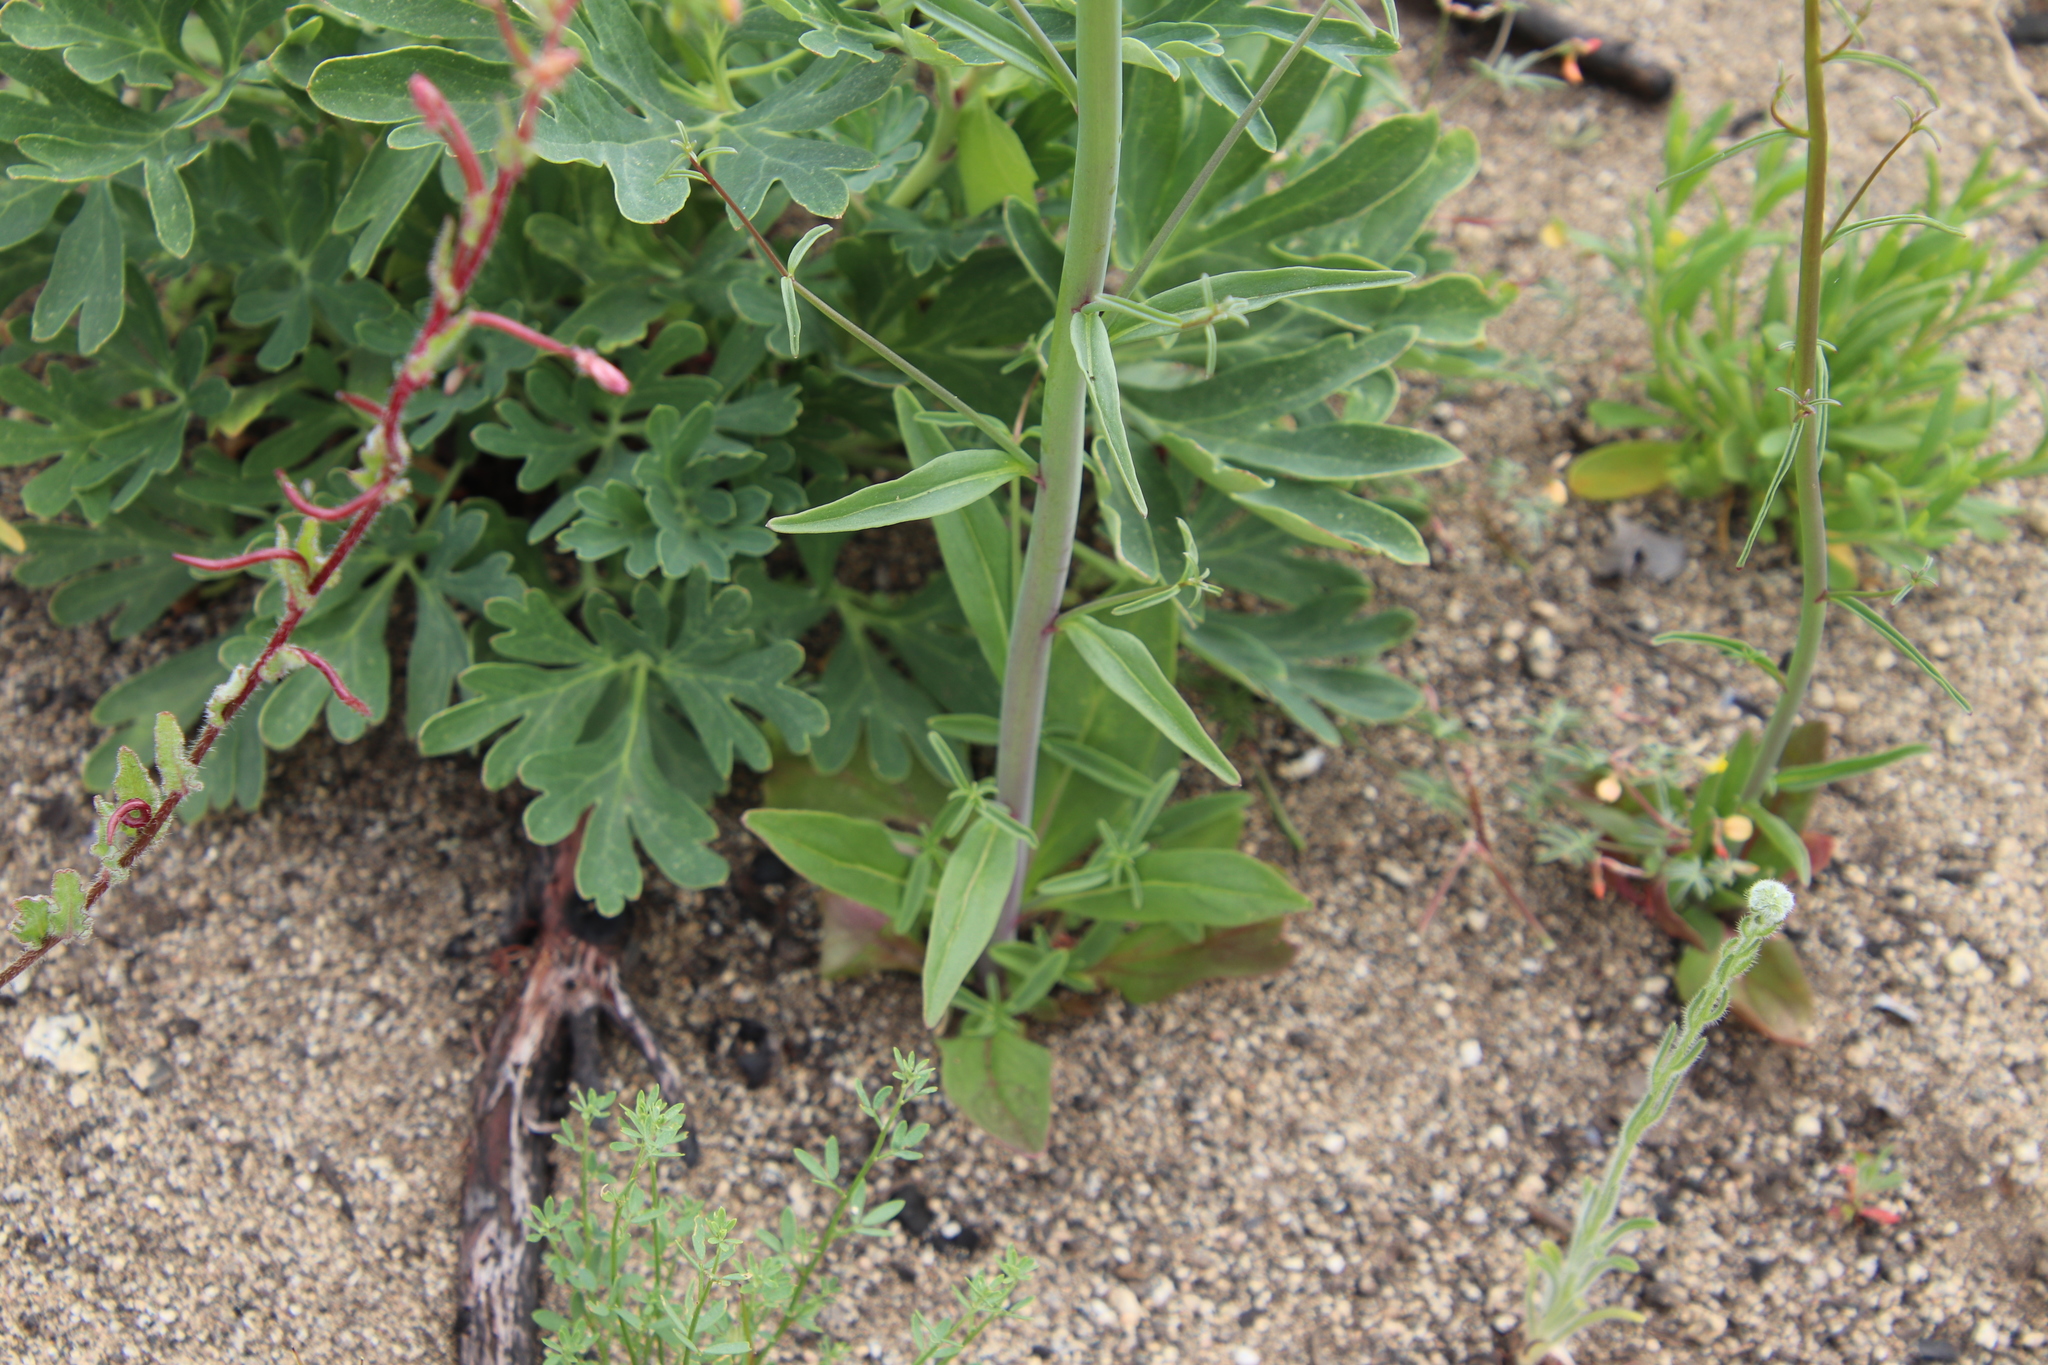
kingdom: Plantae
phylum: Tracheophyta
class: Magnoliopsida
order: Lamiales
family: Plantaginaceae
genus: Sairocarpus
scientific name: Sairocarpus coulterianus
